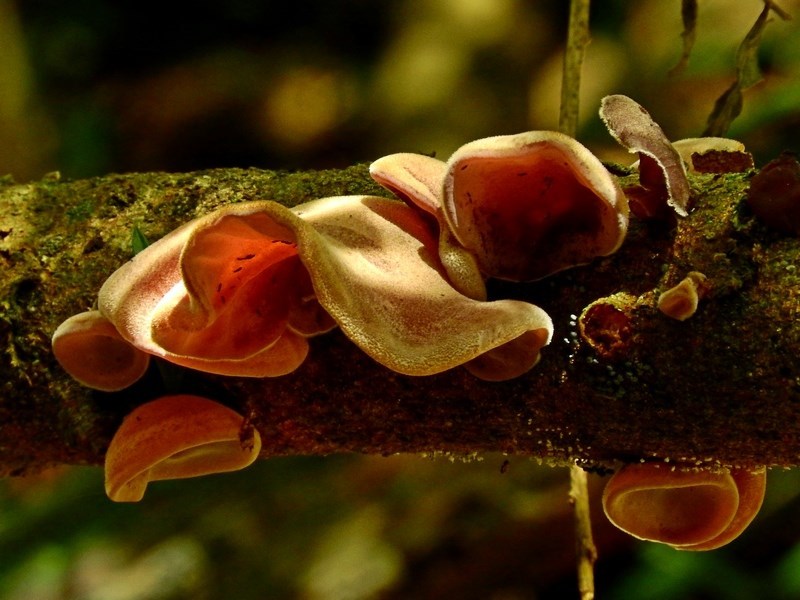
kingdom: Fungi
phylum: Basidiomycota
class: Agaricomycetes
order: Auriculariales
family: Auriculariaceae
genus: Auricularia
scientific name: Auricularia cornea
